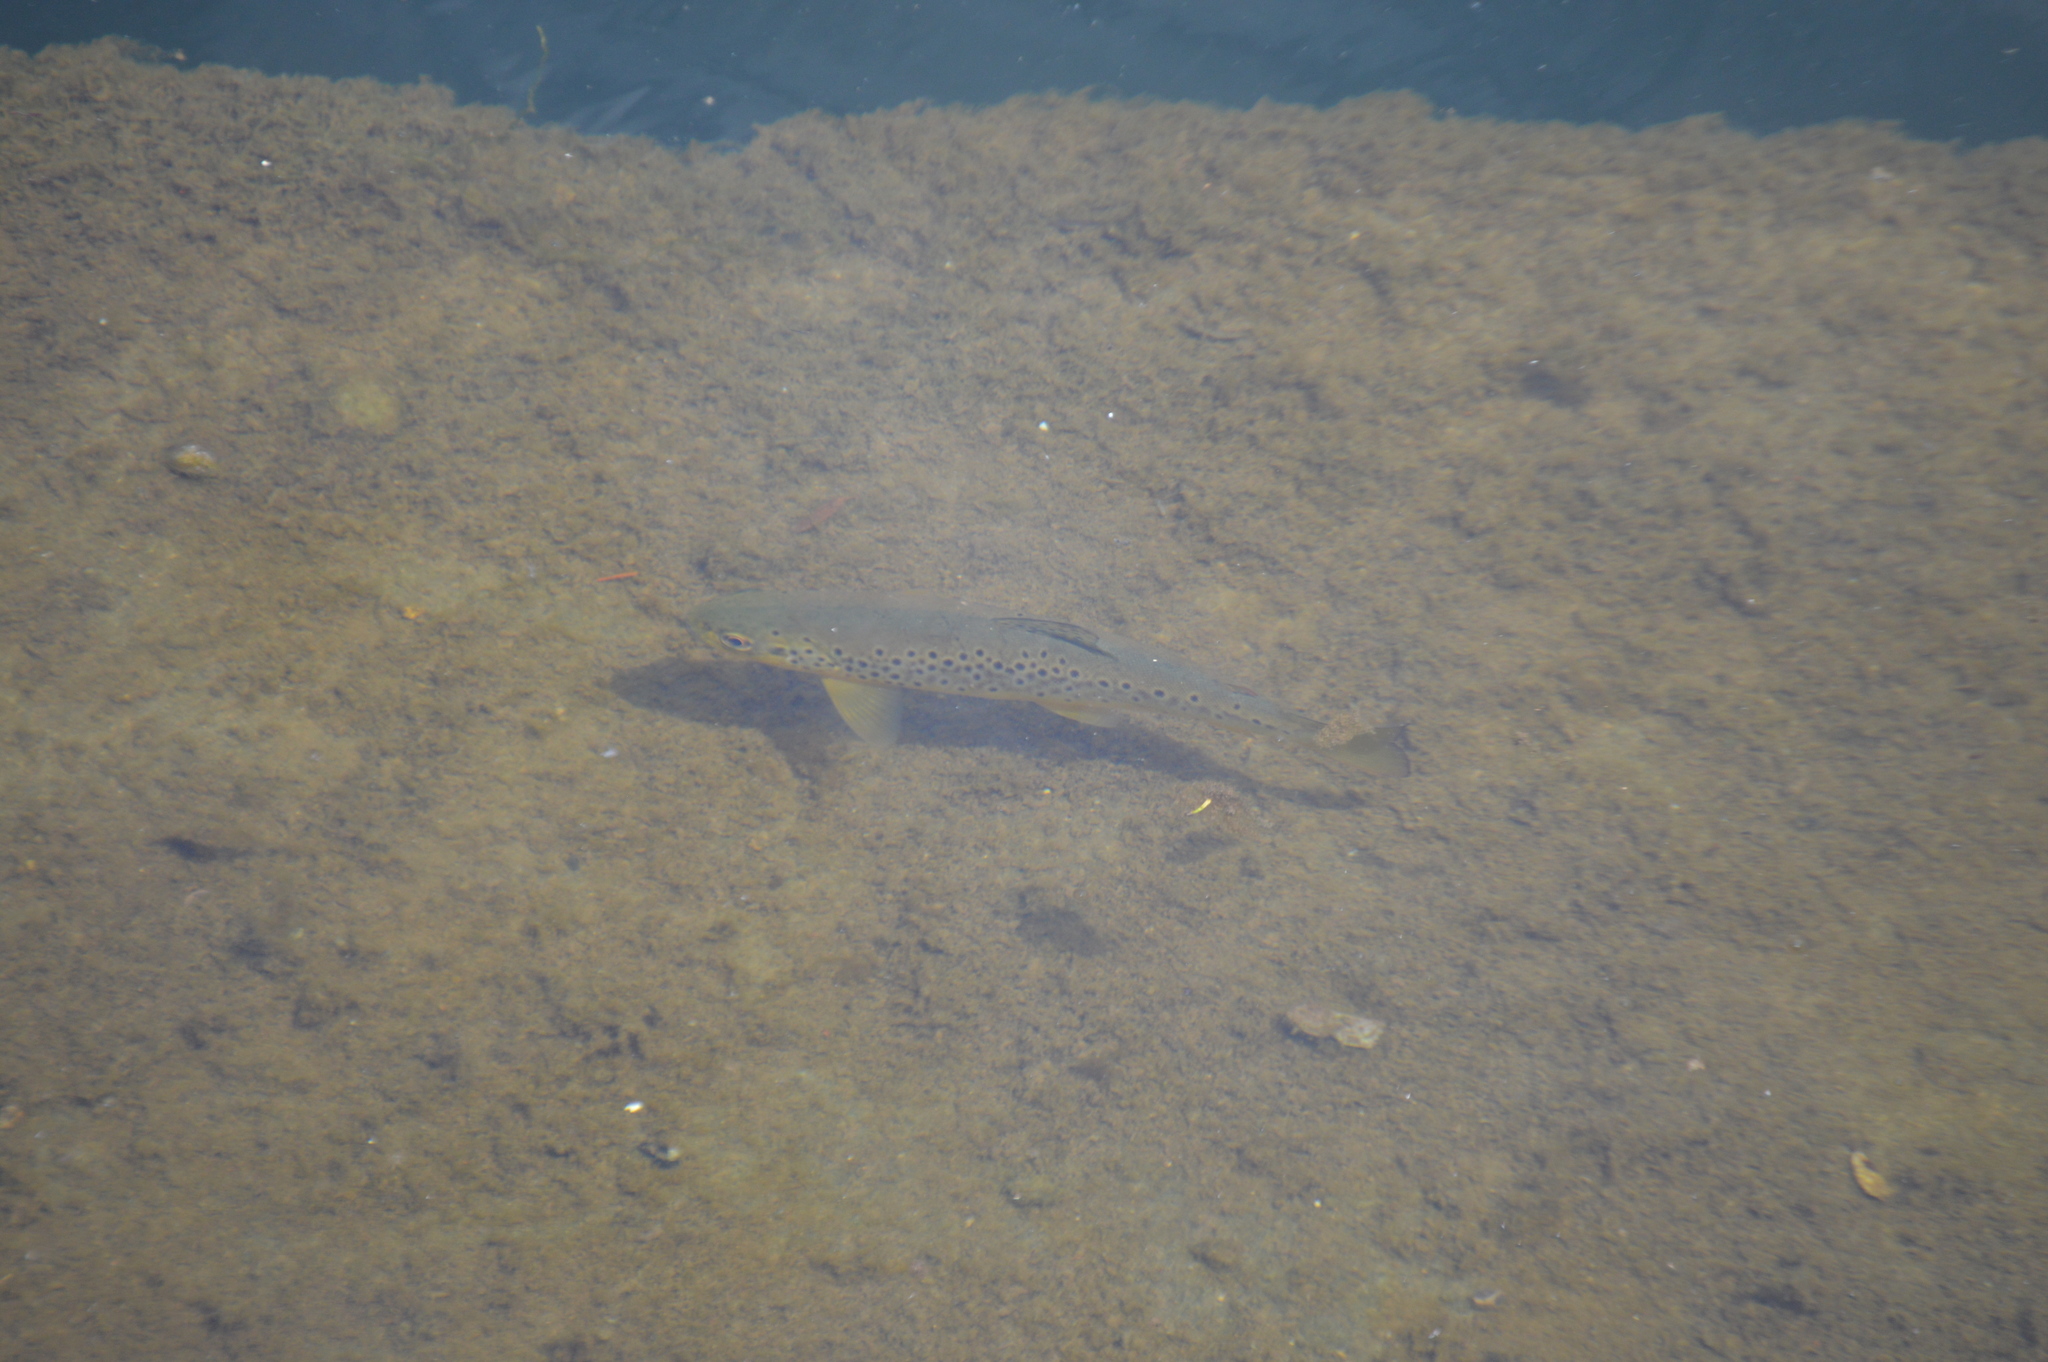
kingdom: Animalia
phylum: Chordata
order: Salmoniformes
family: Salmonidae
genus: Salmo
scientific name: Salmo trutta
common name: Brown trout
